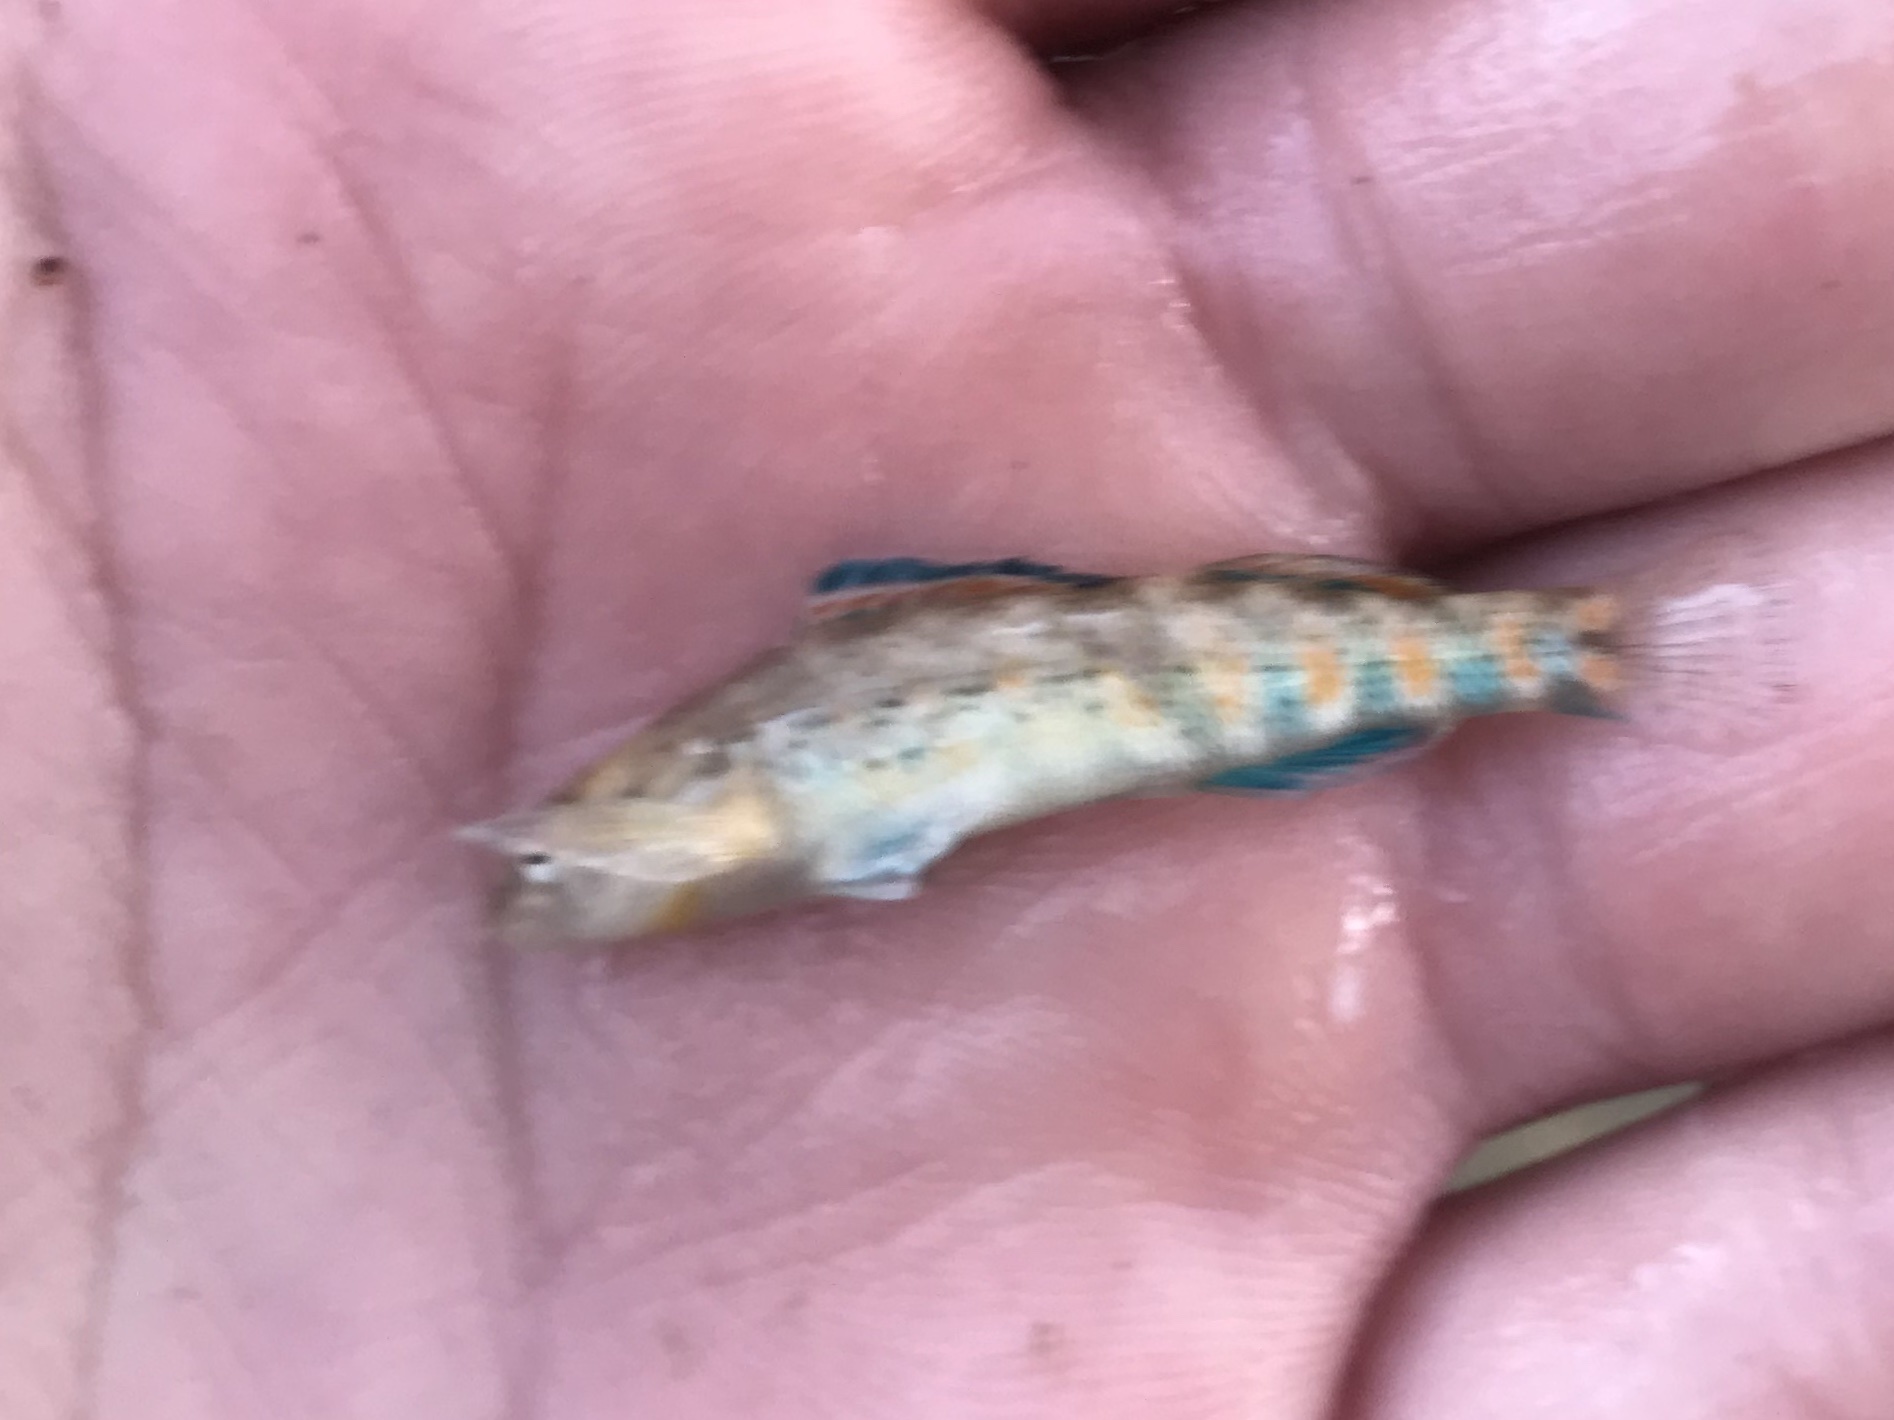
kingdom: Animalia
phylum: Chordata
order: Perciformes
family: Percidae
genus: Etheostoma
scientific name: Etheostoma spectabile
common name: Orangethroat darter
